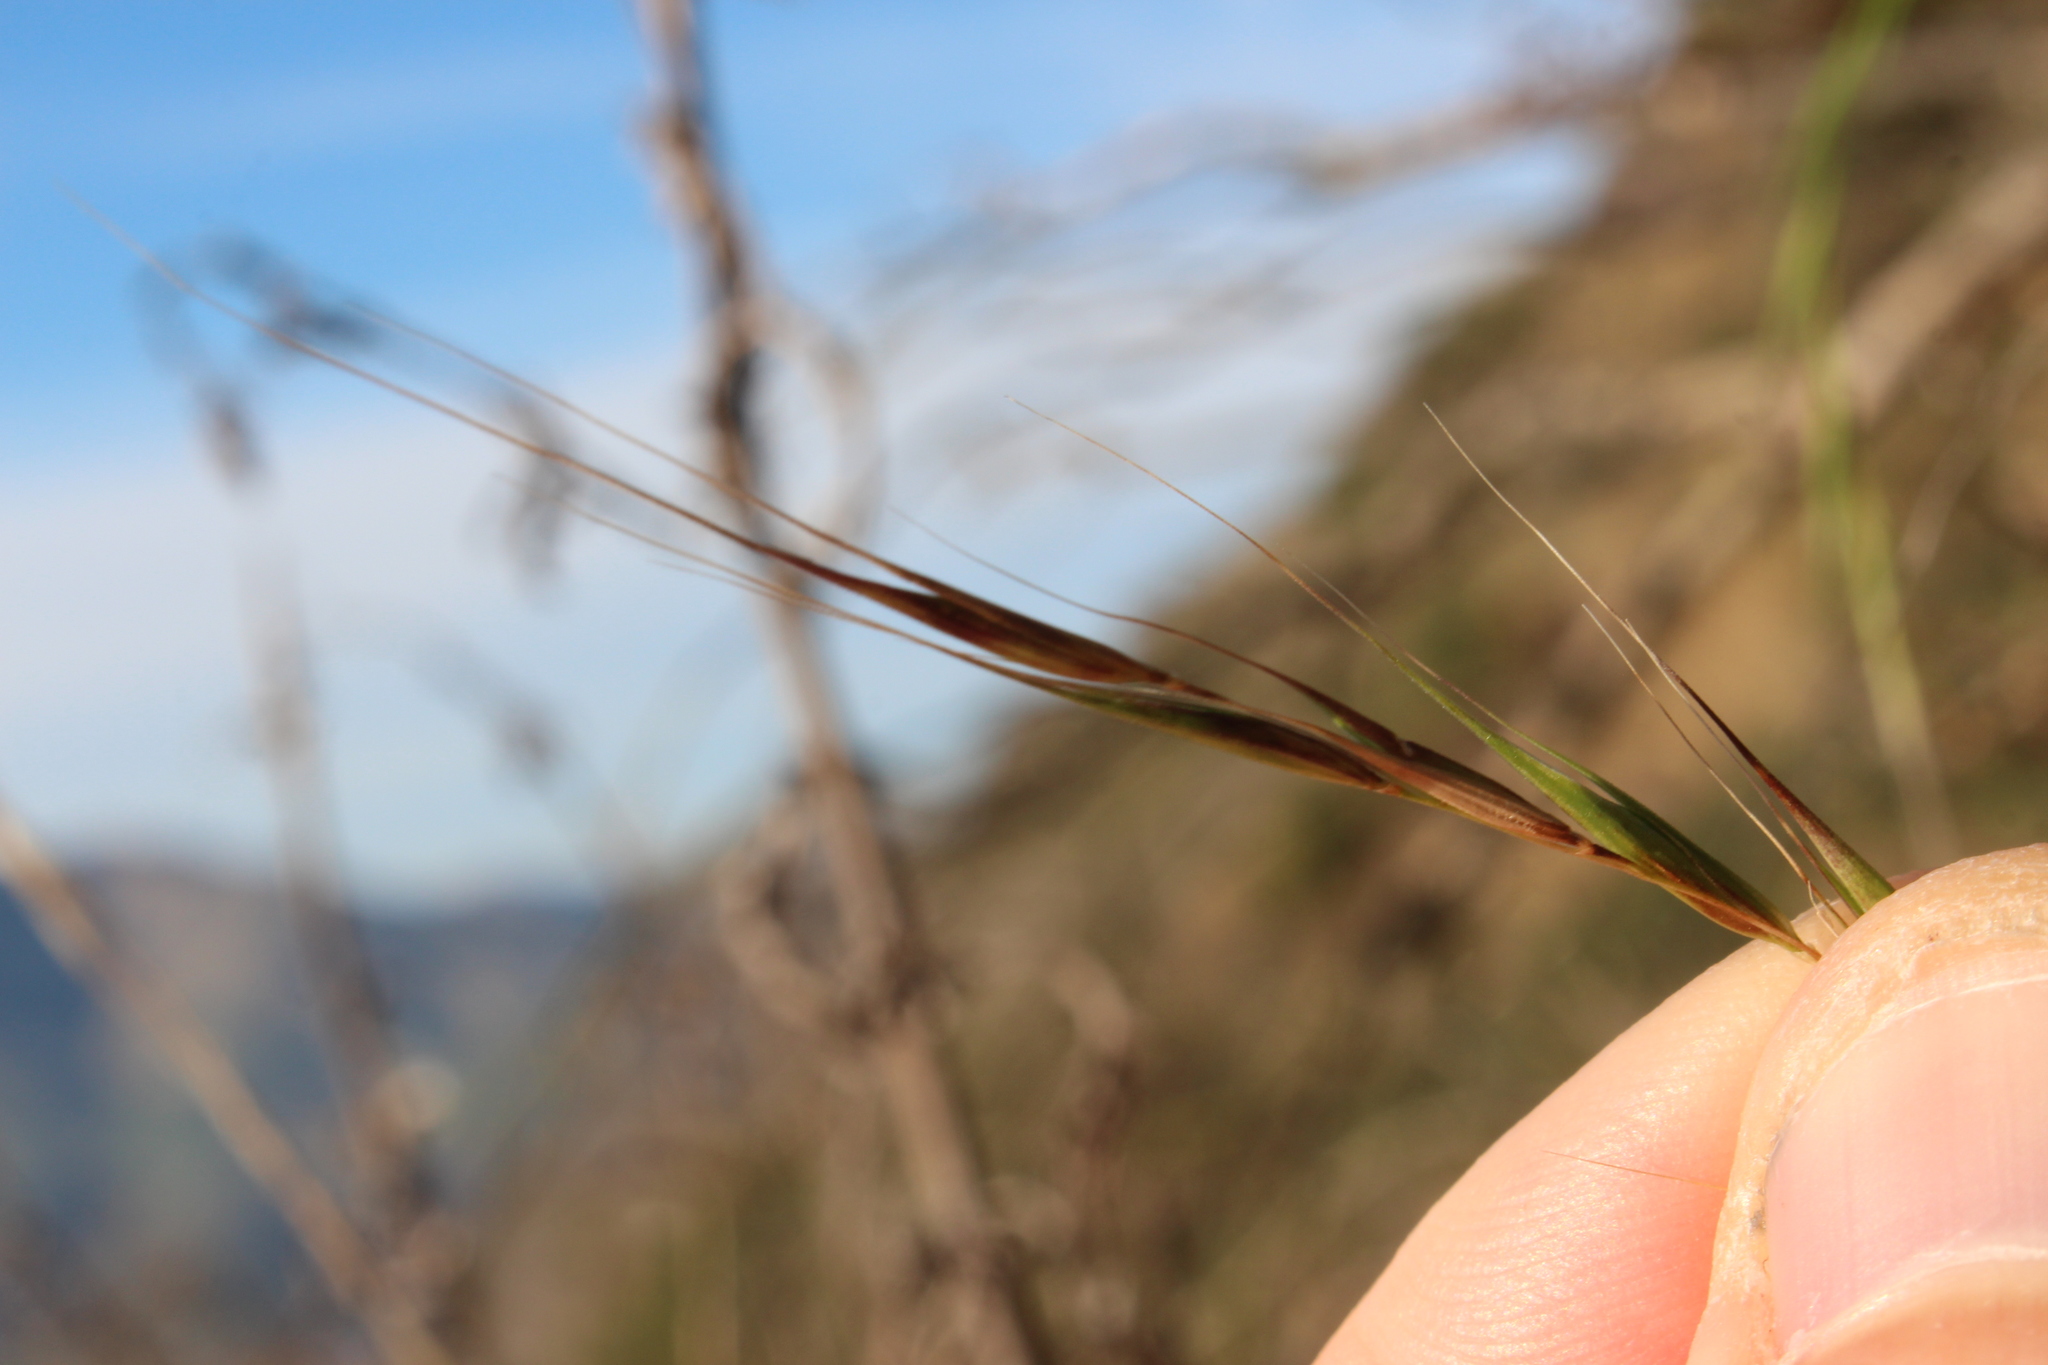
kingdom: Plantae
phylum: Tracheophyta
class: Liliopsida
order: Poales
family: Poaceae
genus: Microlaena
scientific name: Microlaena stipoides
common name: Meadow ricegrass
